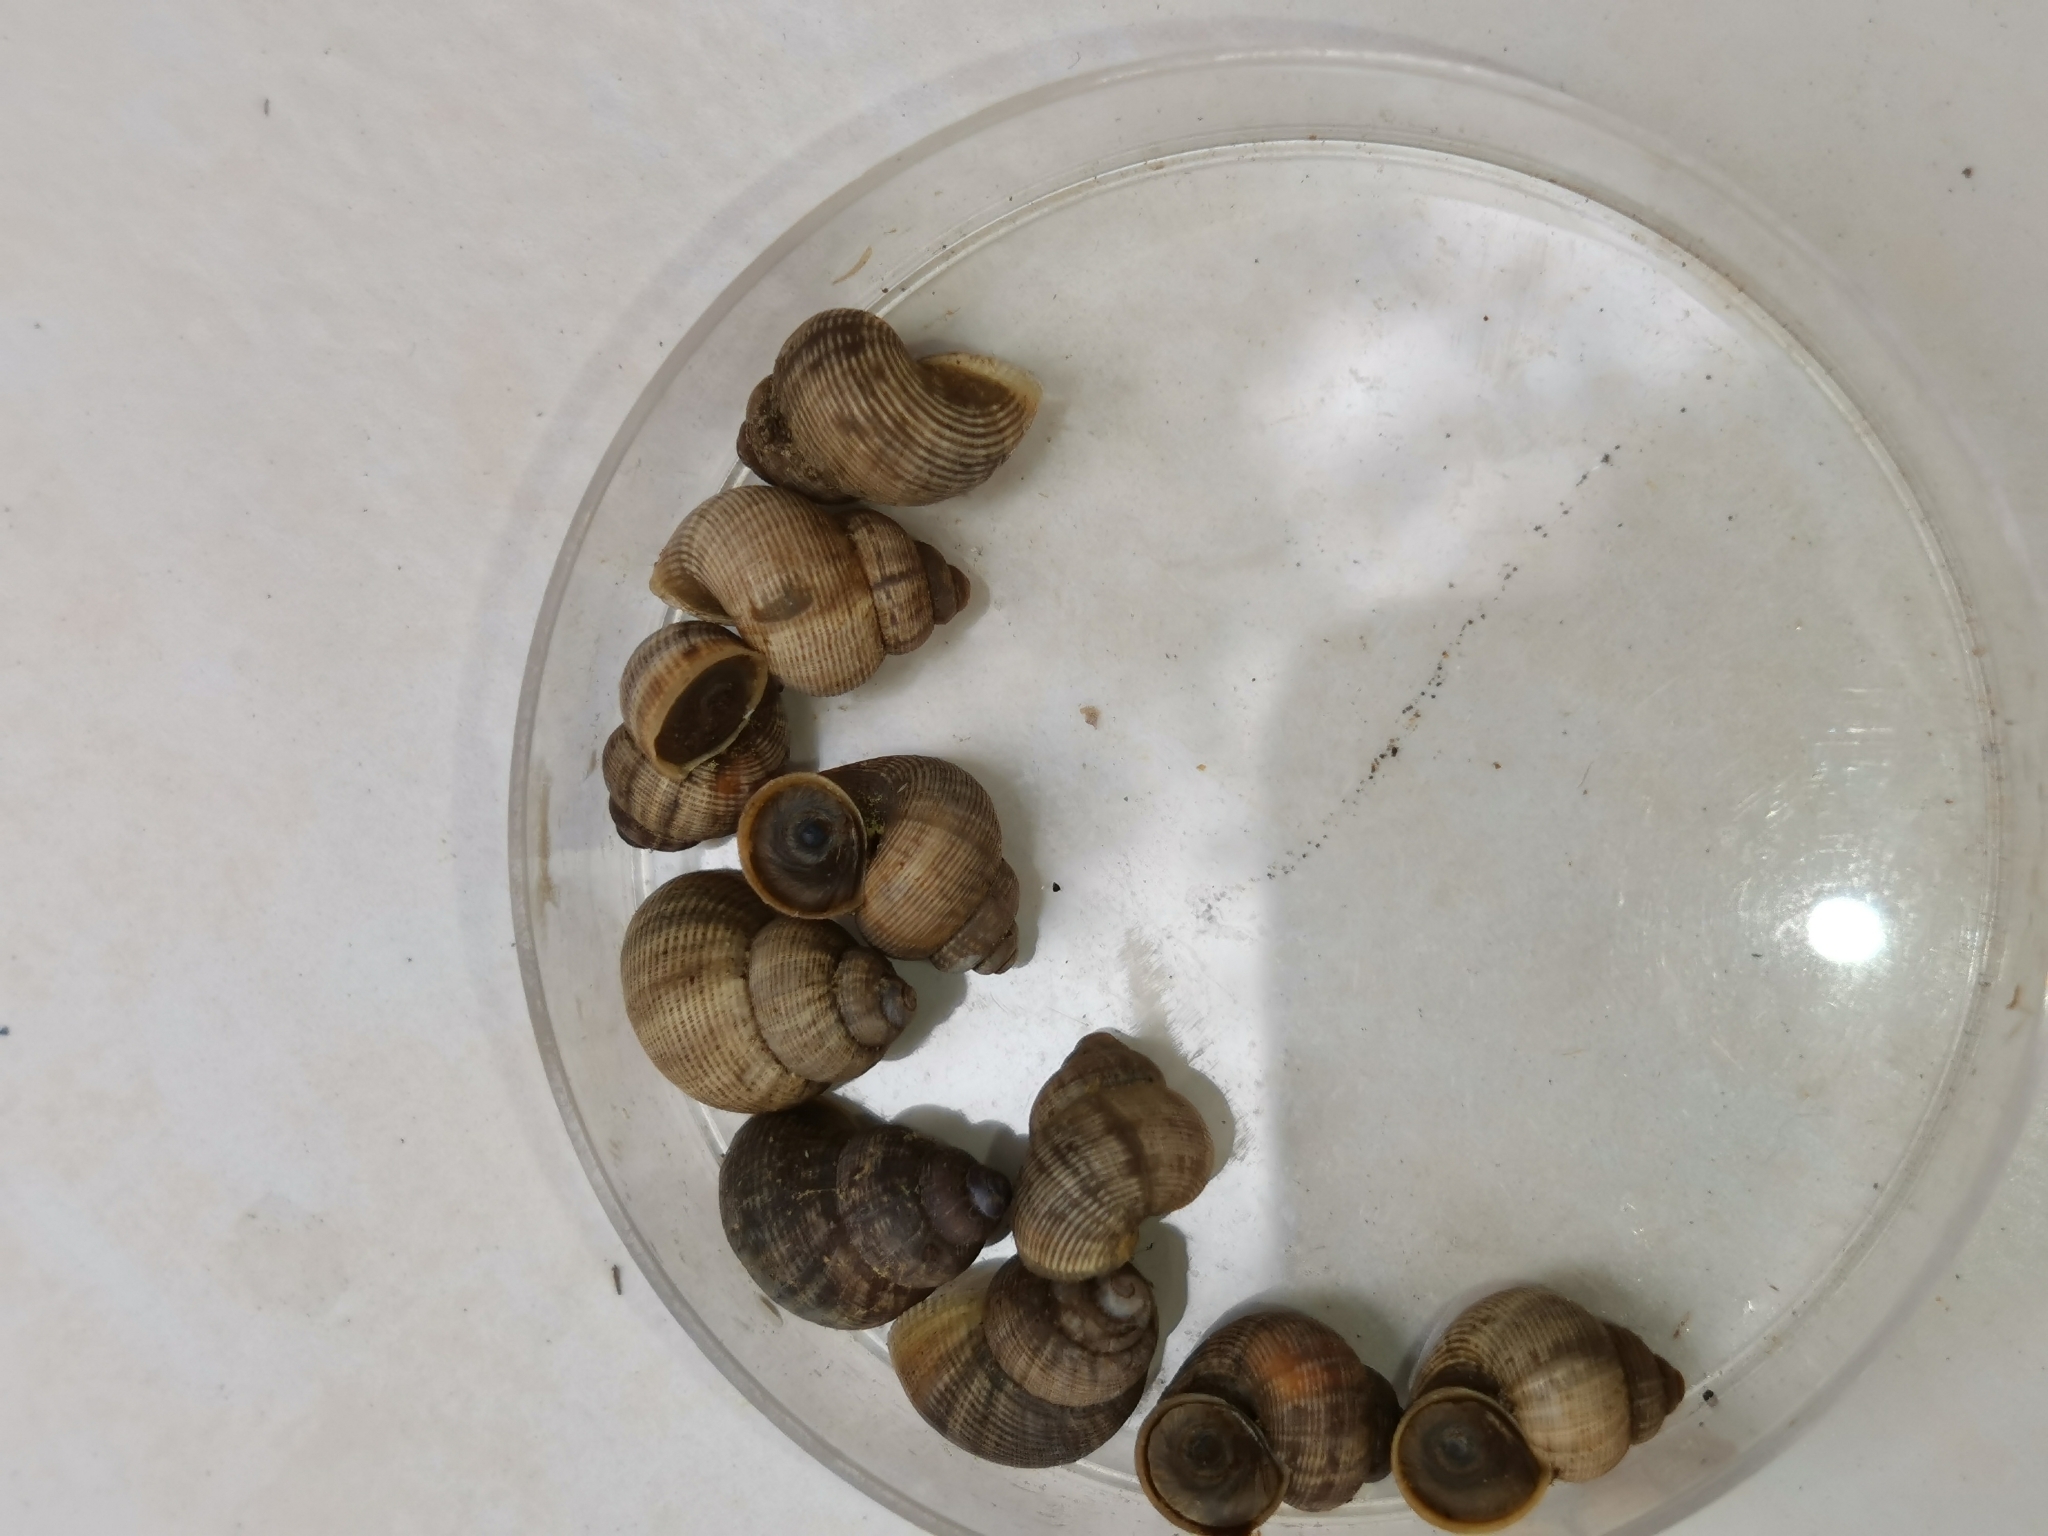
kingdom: Animalia
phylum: Mollusca
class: Gastropoda
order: Littorinimorpha
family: Pomatiidae
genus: Pomatias
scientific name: Pomatias elegans
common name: Red-mouthed snail
